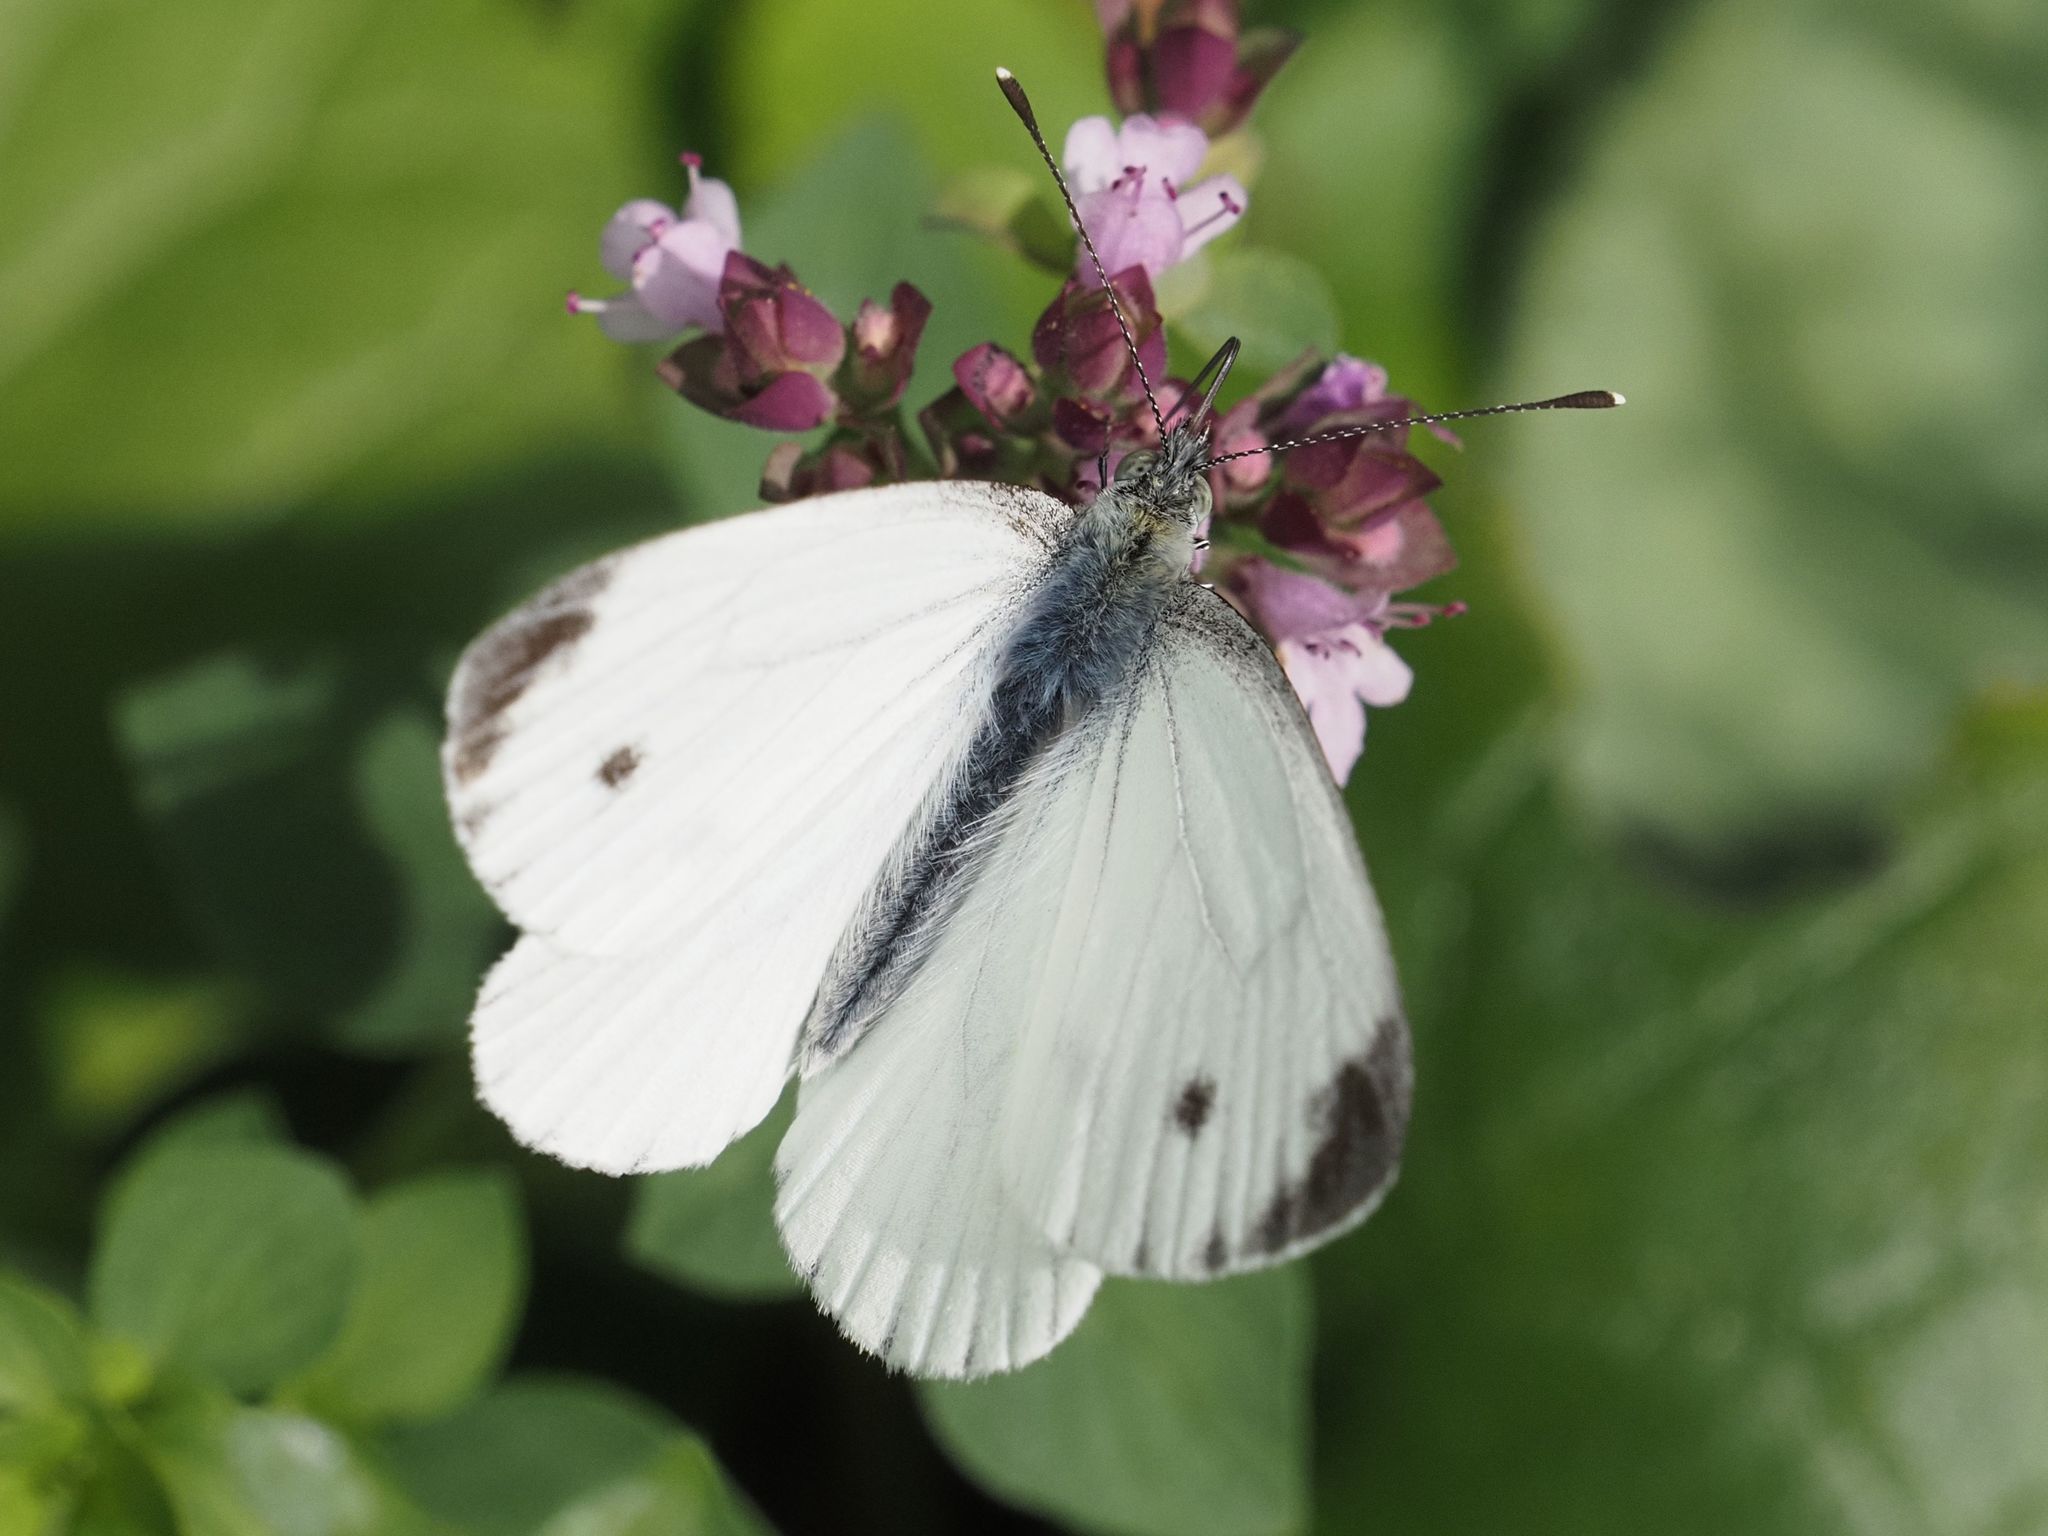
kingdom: Animalia
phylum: Arthropoda
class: Insecta
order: Lepidoptera
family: Pieridae
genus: Pieris
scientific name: Pieris napi
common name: Green-veined white
